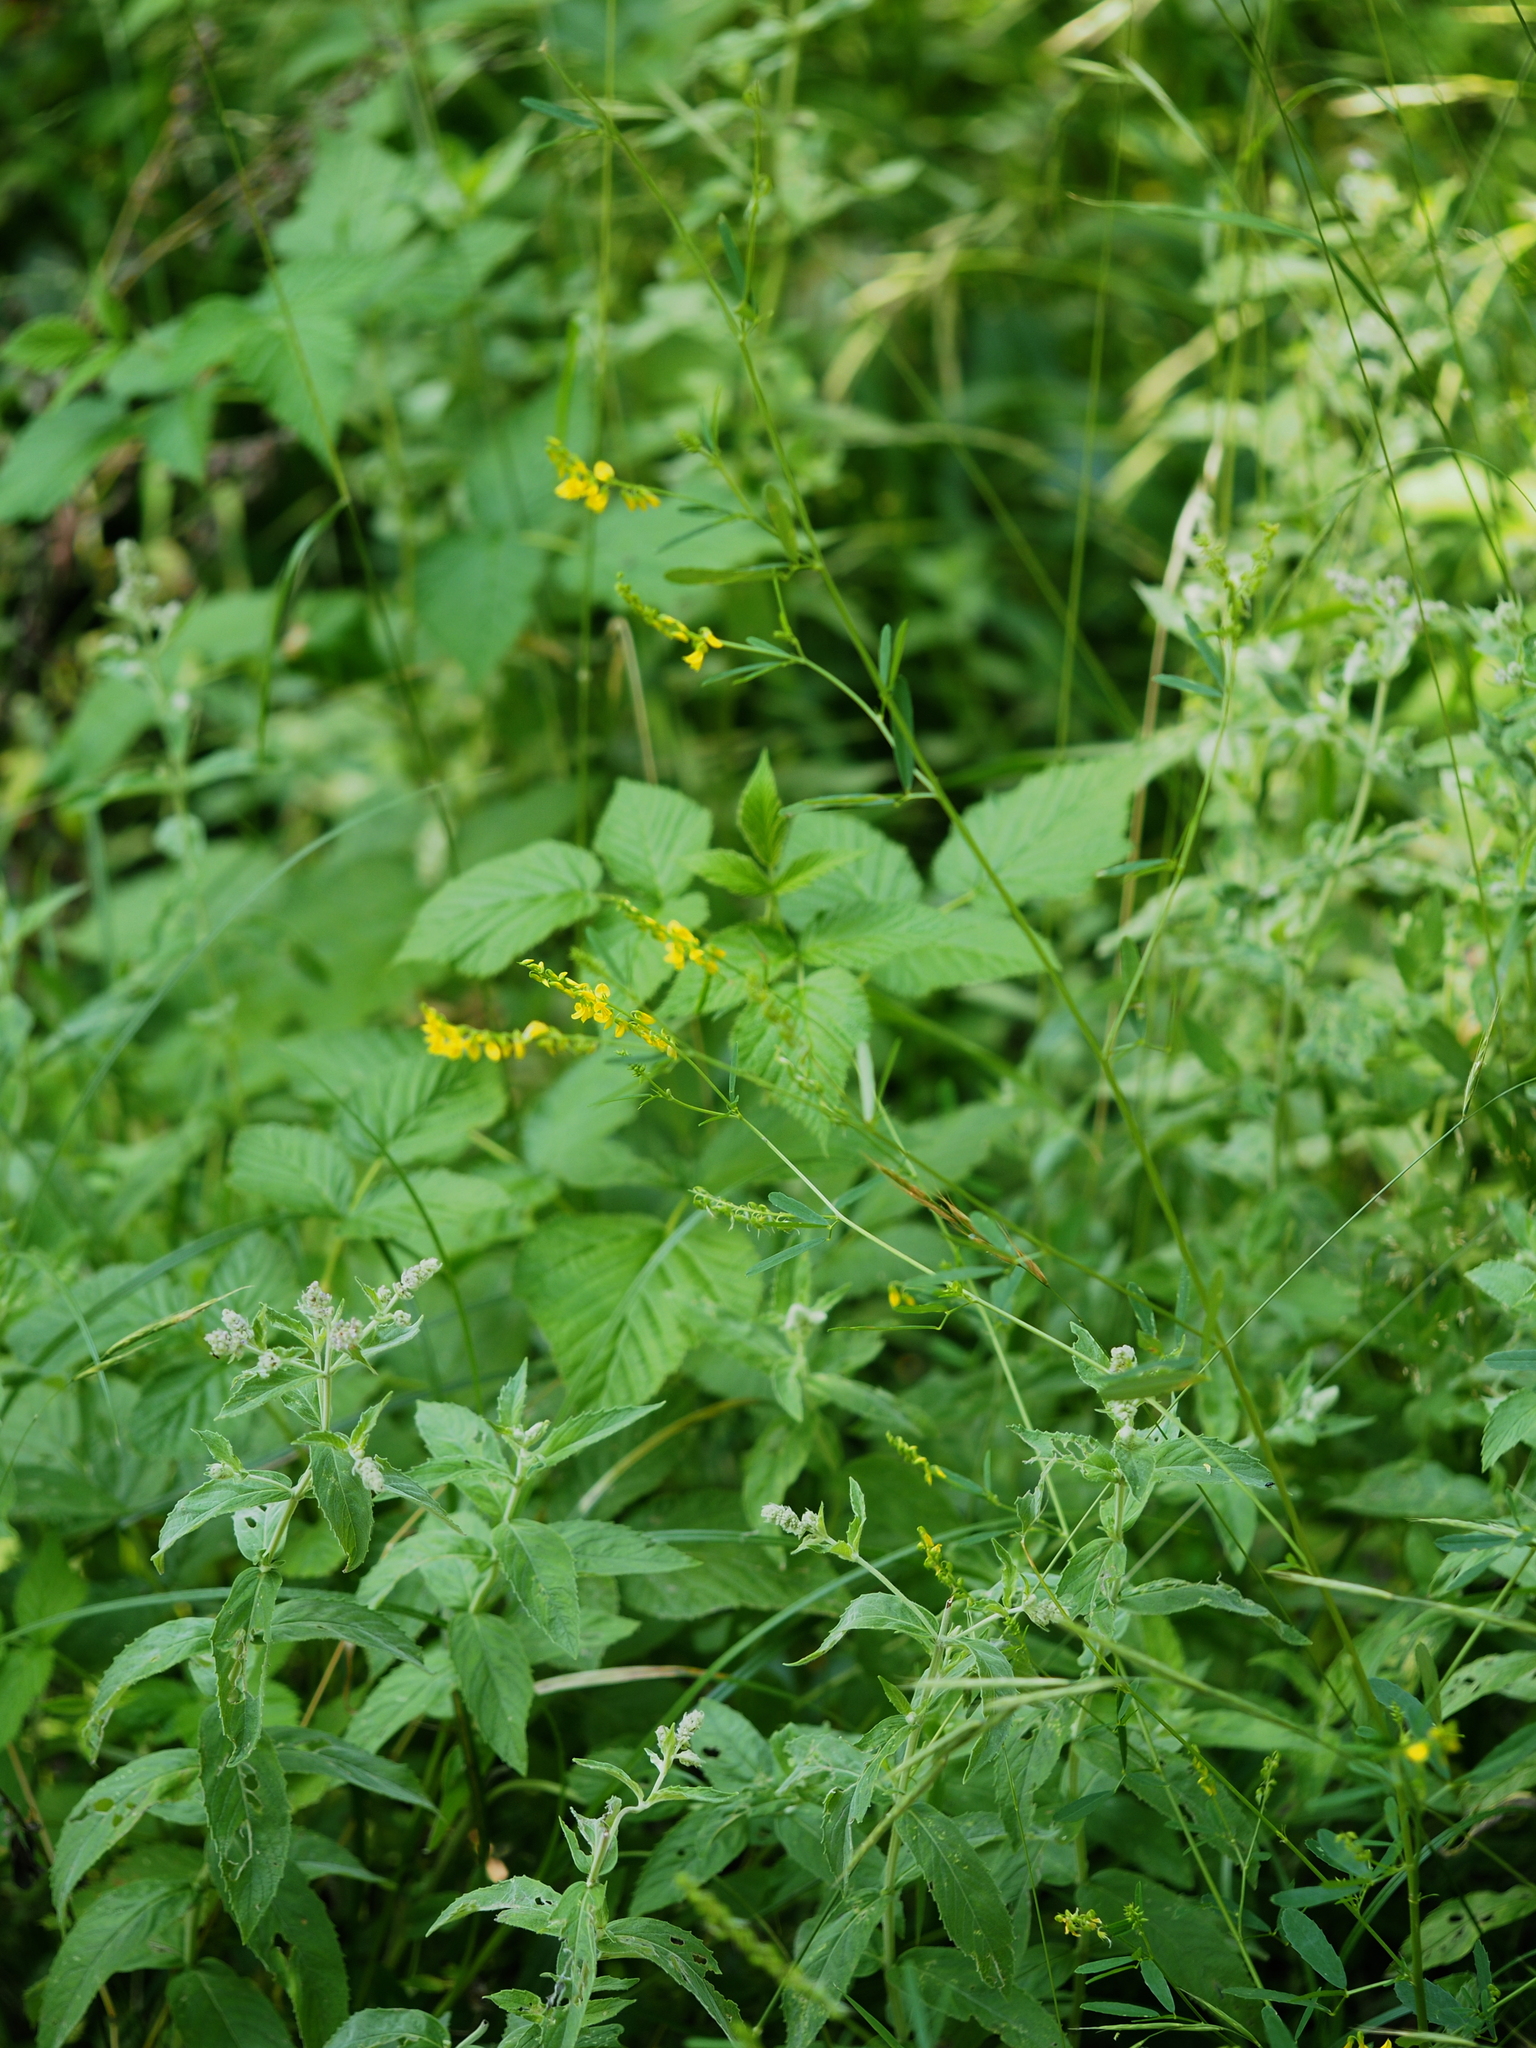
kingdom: Plantae
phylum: Tracheophyta
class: Magnoliopsida
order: Fabales
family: Fabaceae
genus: Melilotus
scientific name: Melilotus altissimus
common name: Tall melilot
